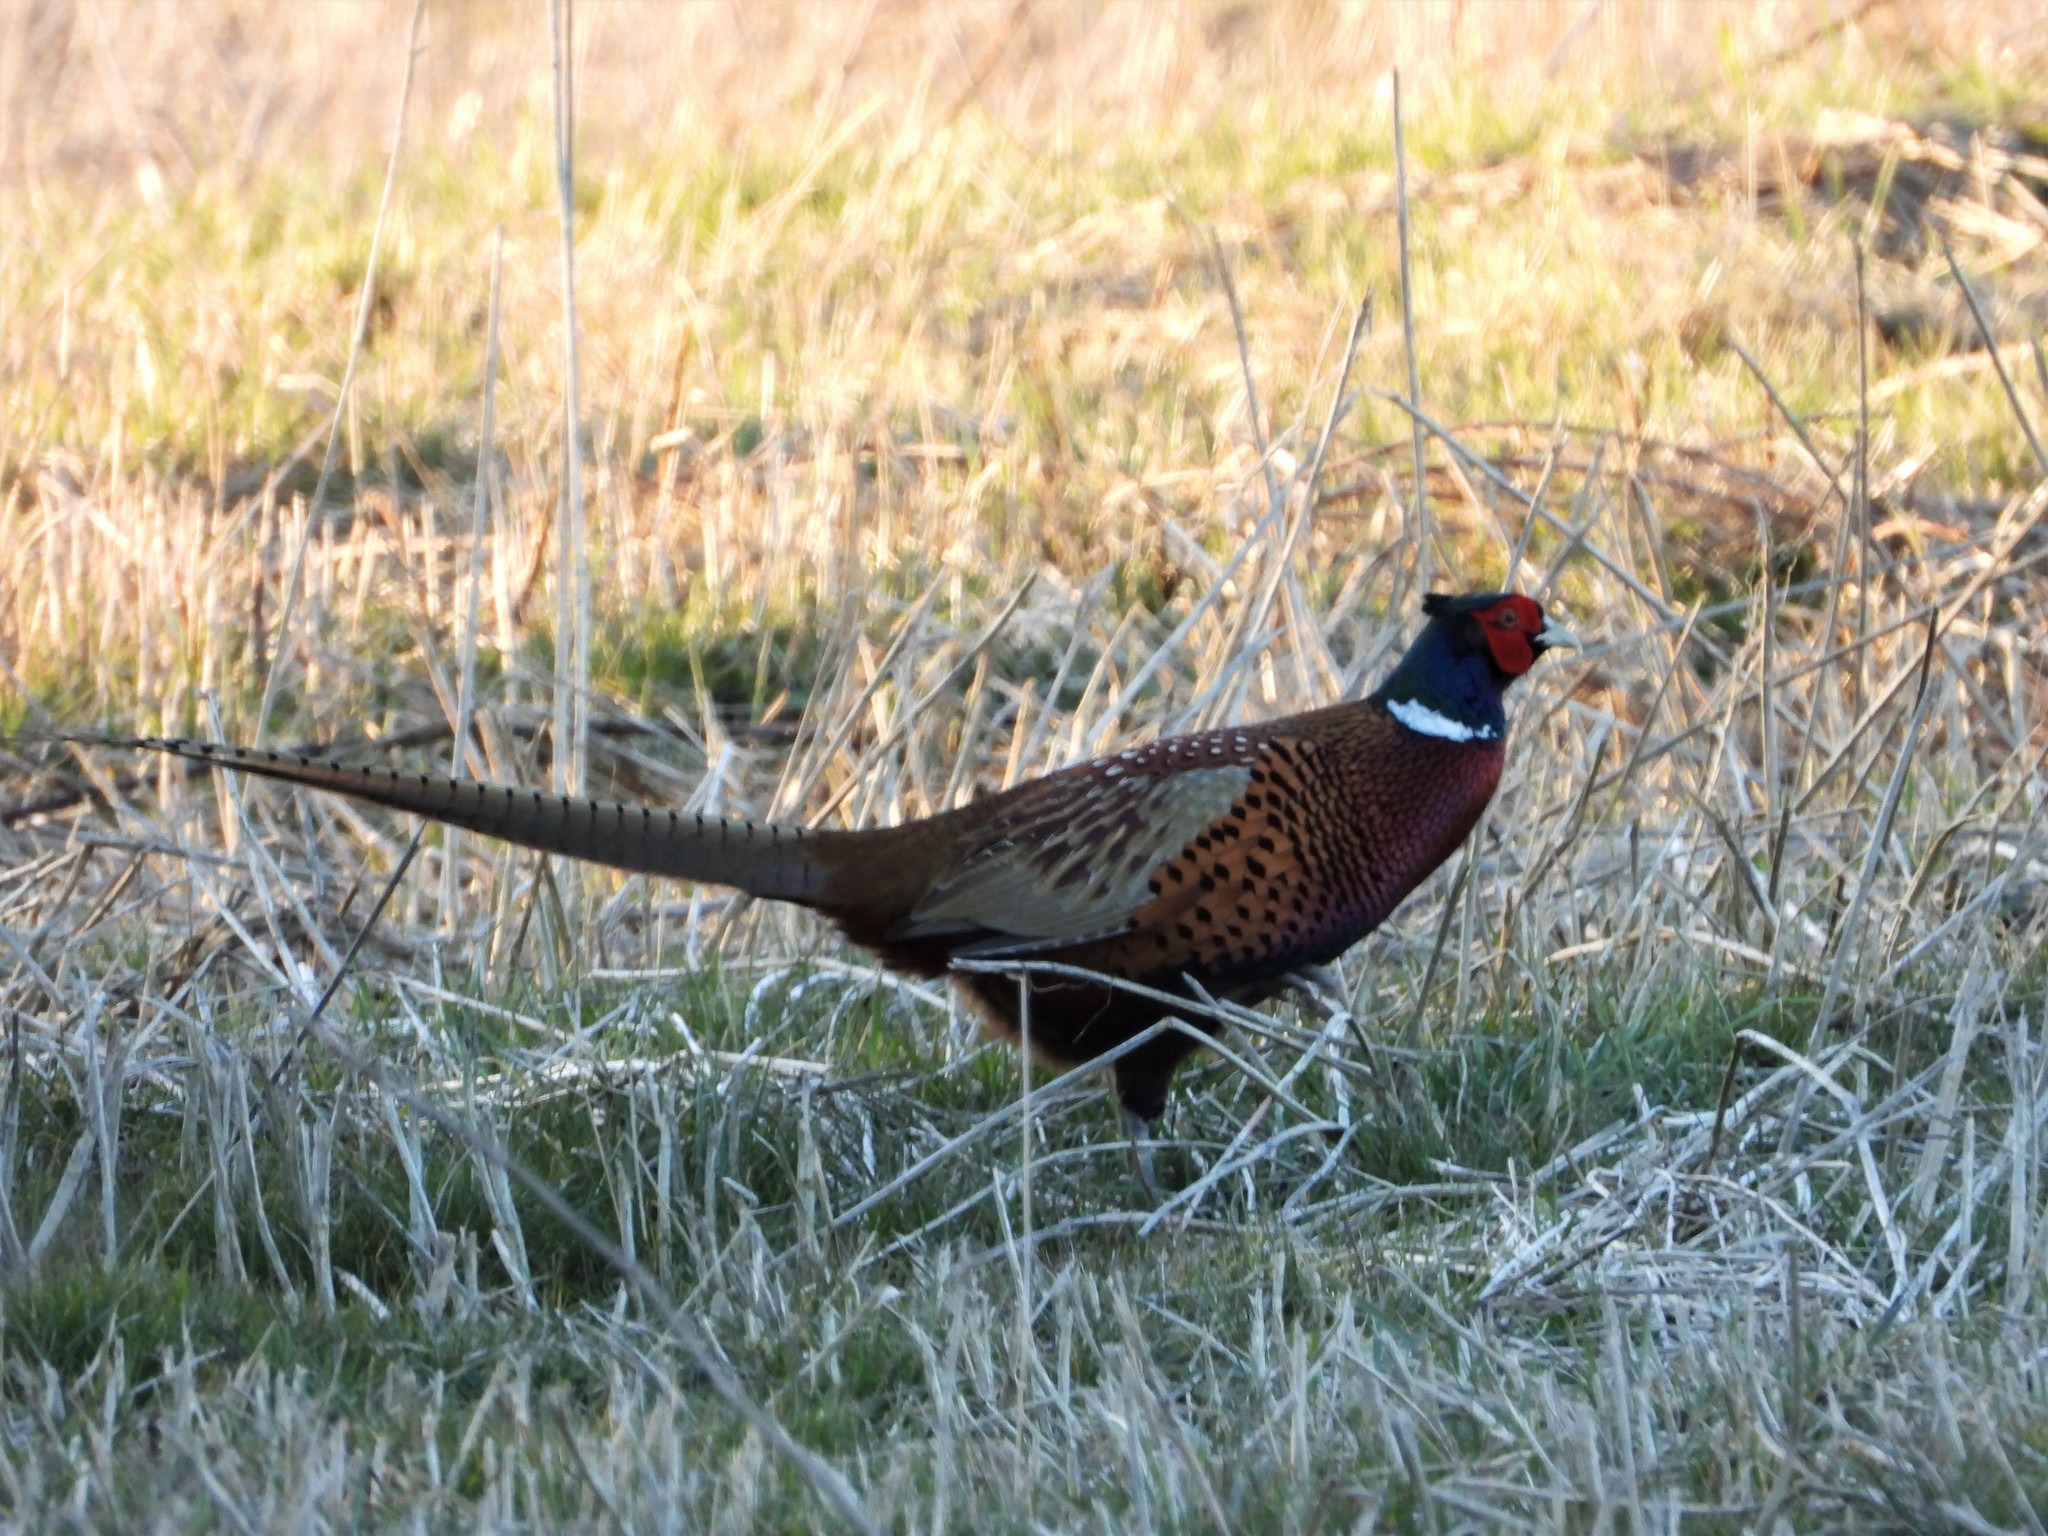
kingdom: Animalia
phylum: Chordata
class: Aves
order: Galliformes
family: Phasianidae
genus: Phasianus
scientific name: Phasianus colchicus
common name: Common pheasant
